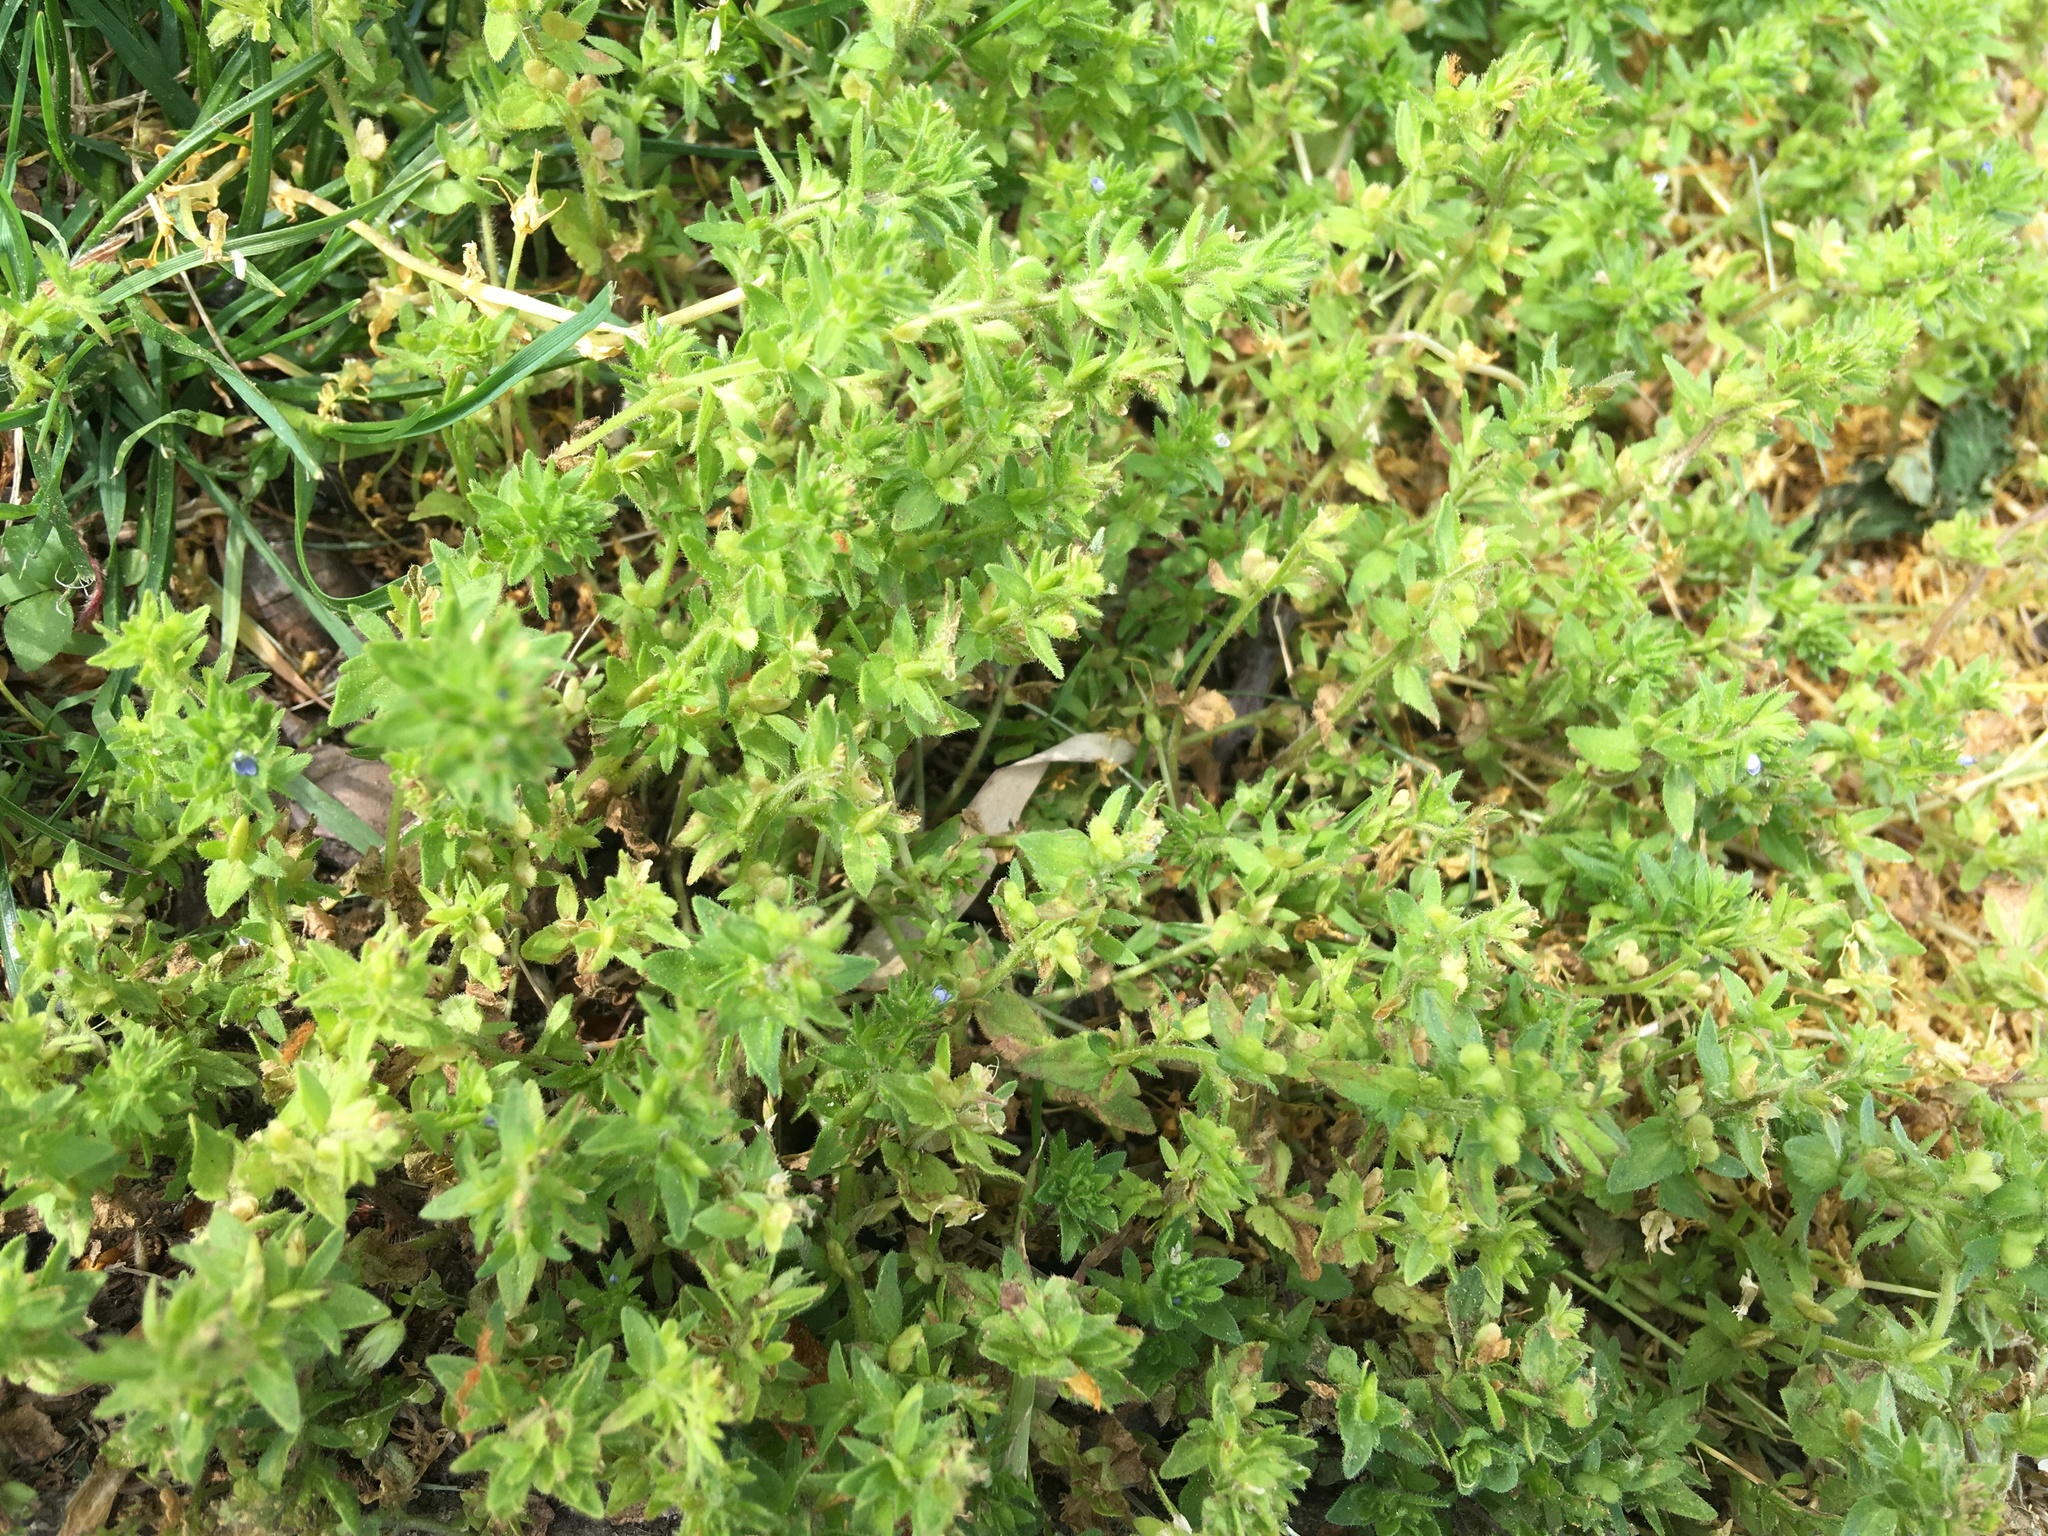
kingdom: Plantae
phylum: Tracheophyta
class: Magnoliopsida
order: Lamiales
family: Plantaginaceae
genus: Veronica
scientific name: Veronica arvensis
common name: Corn speedwell
